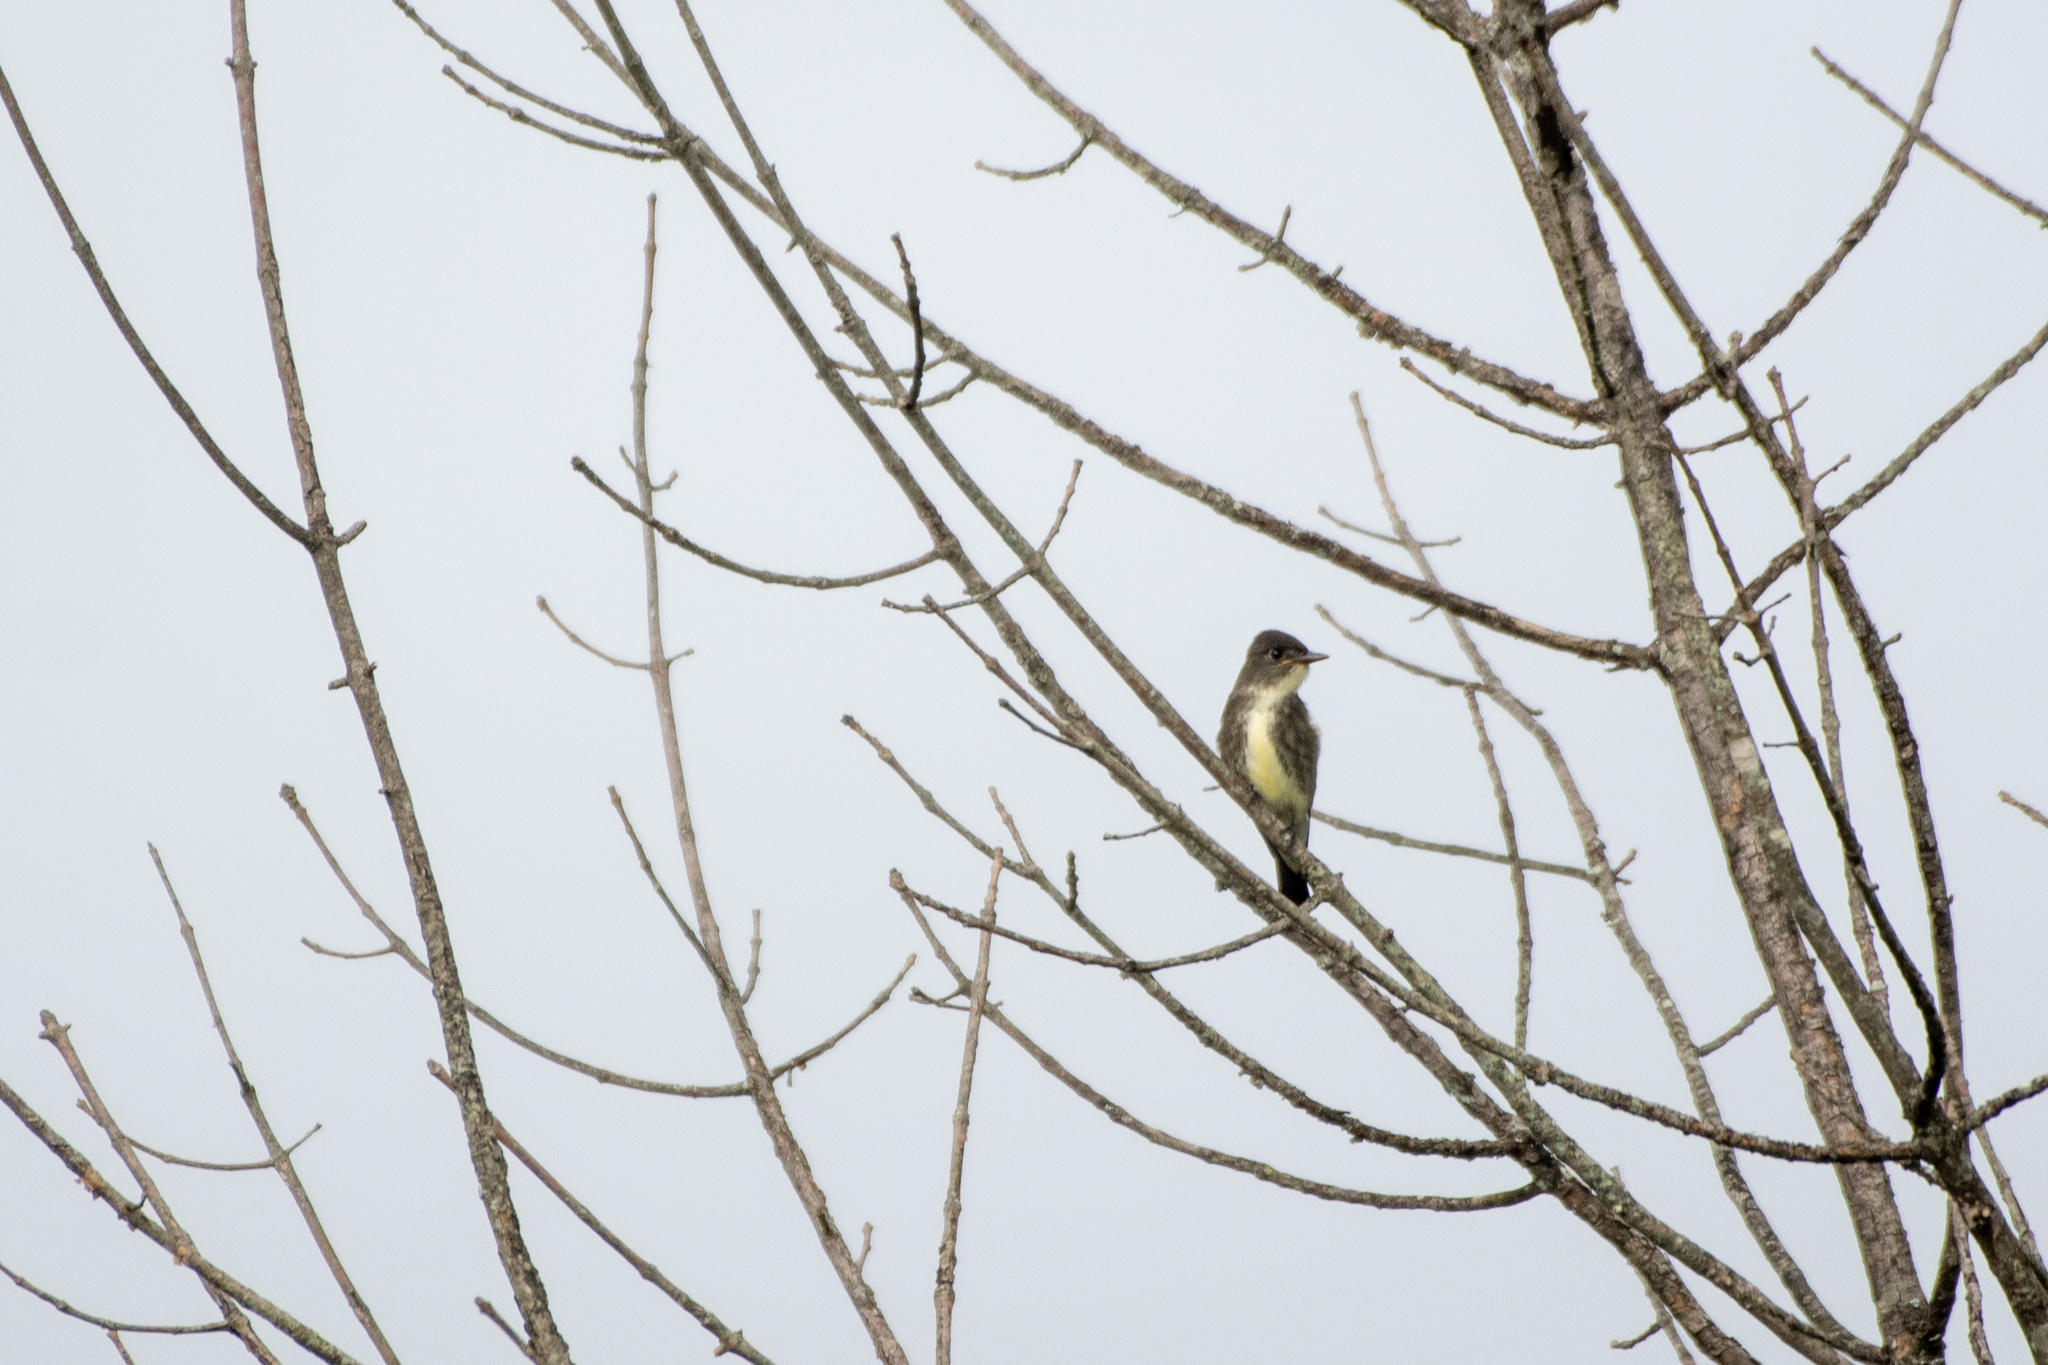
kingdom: Animalia
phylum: Chordata
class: Aves
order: Passeriformes
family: Tyrannidae
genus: Contopus
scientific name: Contopus cooperi
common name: Olive-sided flycatcher
